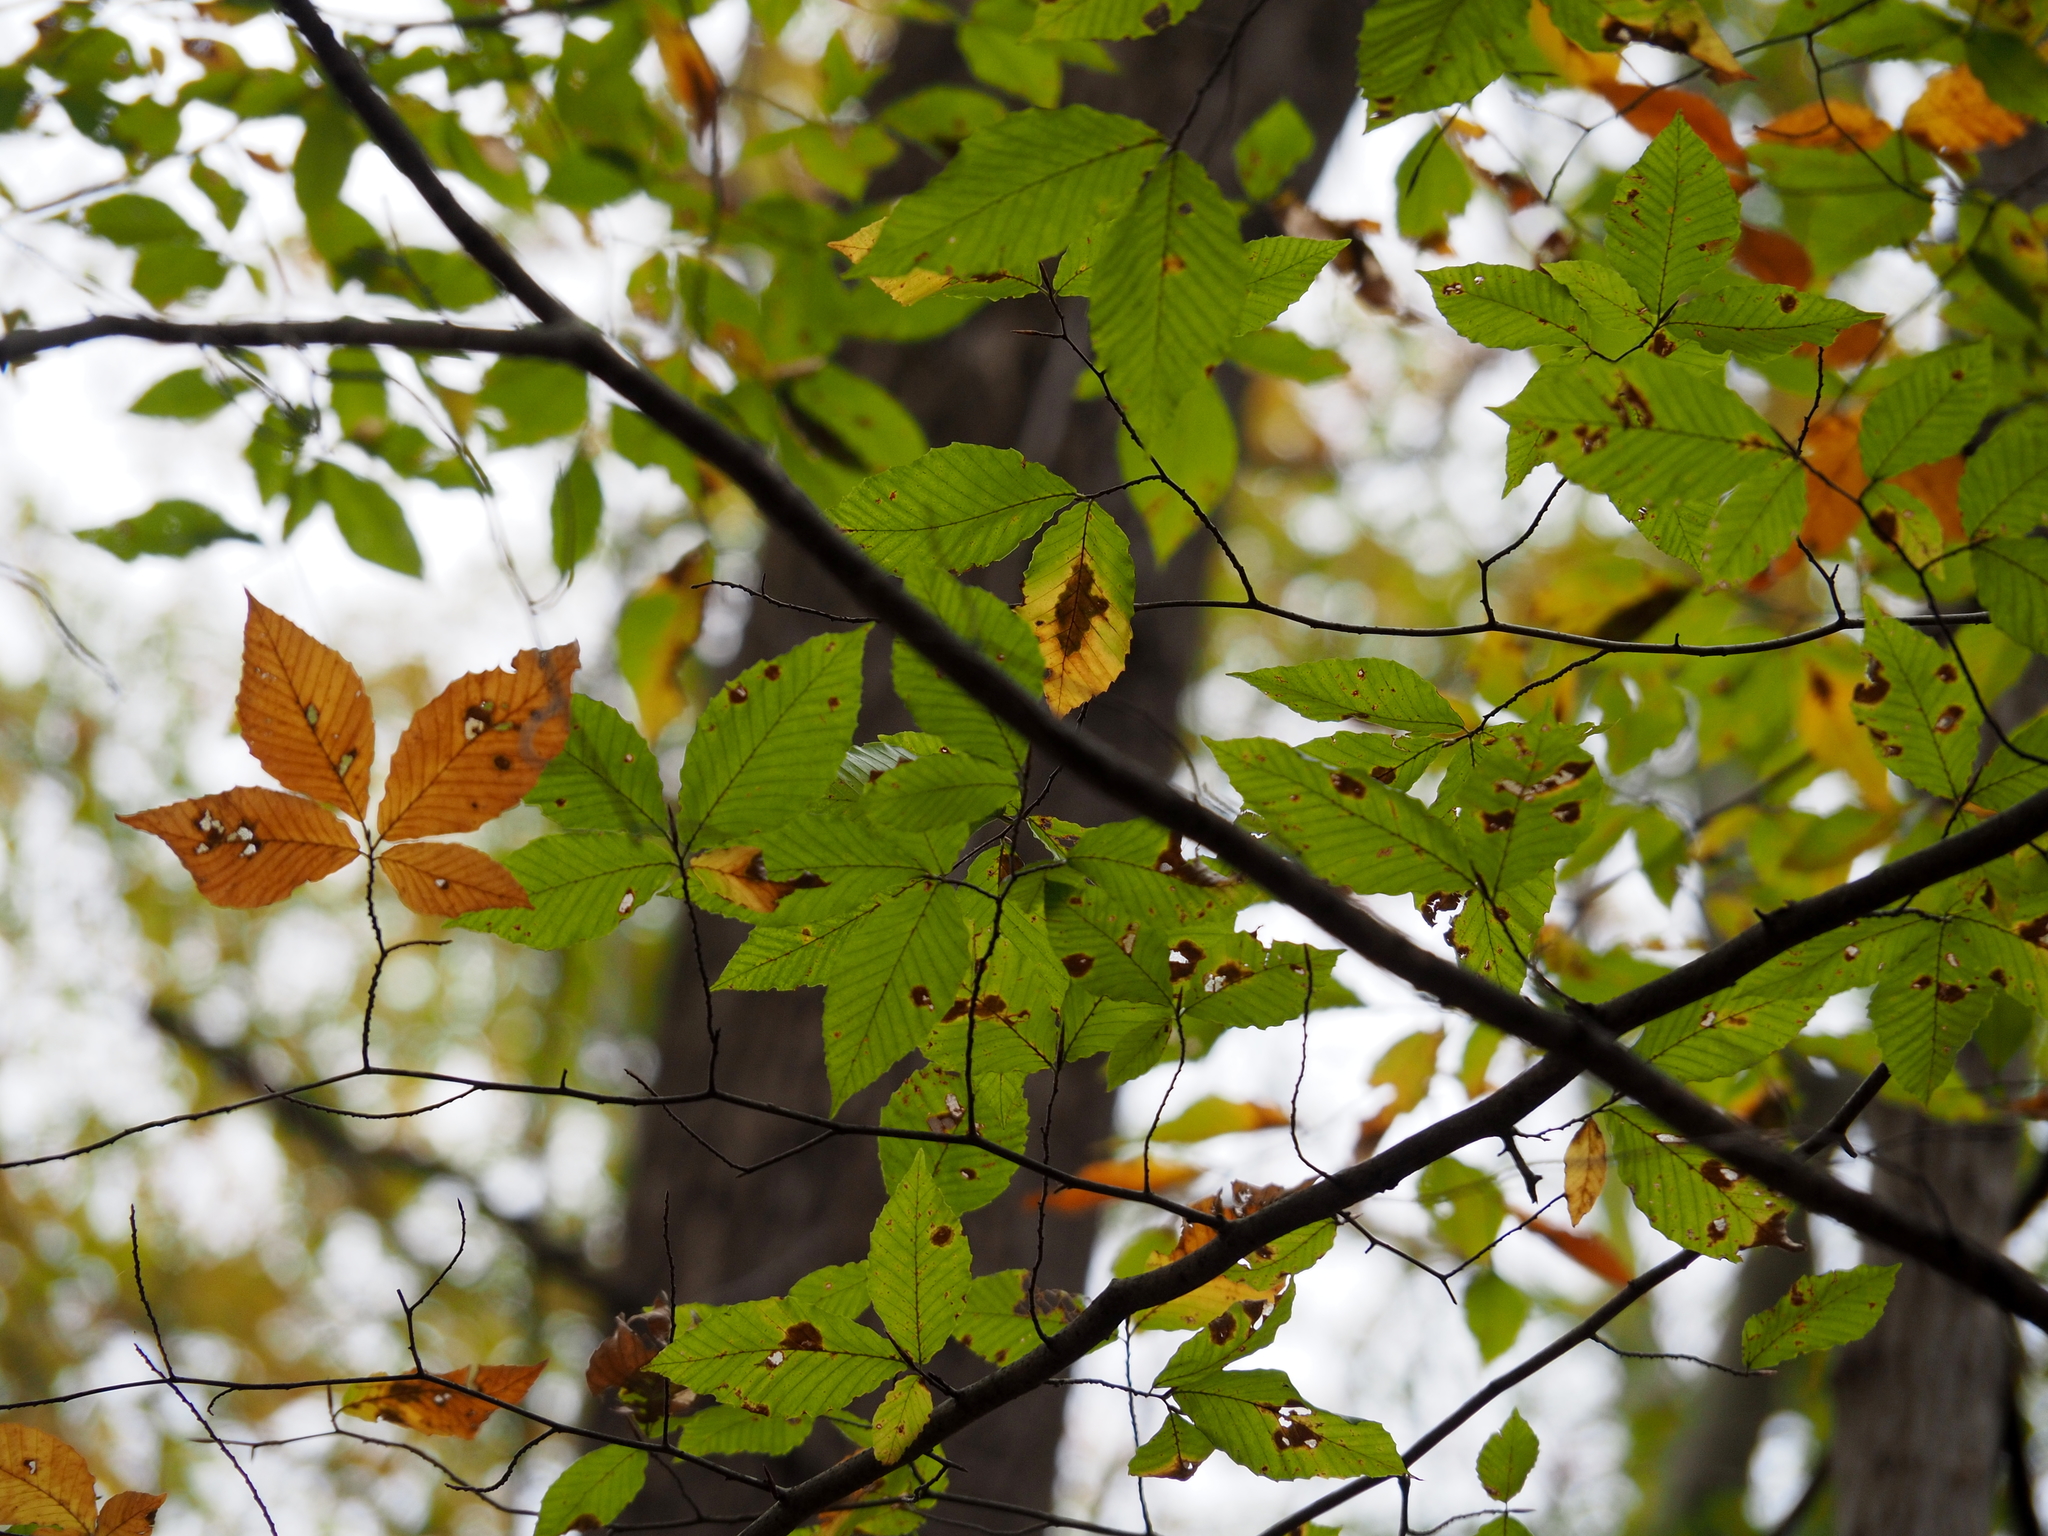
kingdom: Plantae
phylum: Tracheophyta
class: Magnoliopsida
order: Fagales
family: Fagaceae
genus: Fagus
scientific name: Fagus grandifolia
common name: American beech
